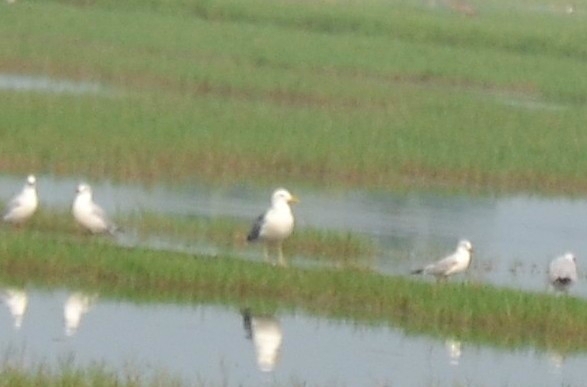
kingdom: Animalia
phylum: Chordata
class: Aves
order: Charadriiformes
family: Laridae
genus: Larus
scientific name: Larus fuscus
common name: Lesser black-backed gull
